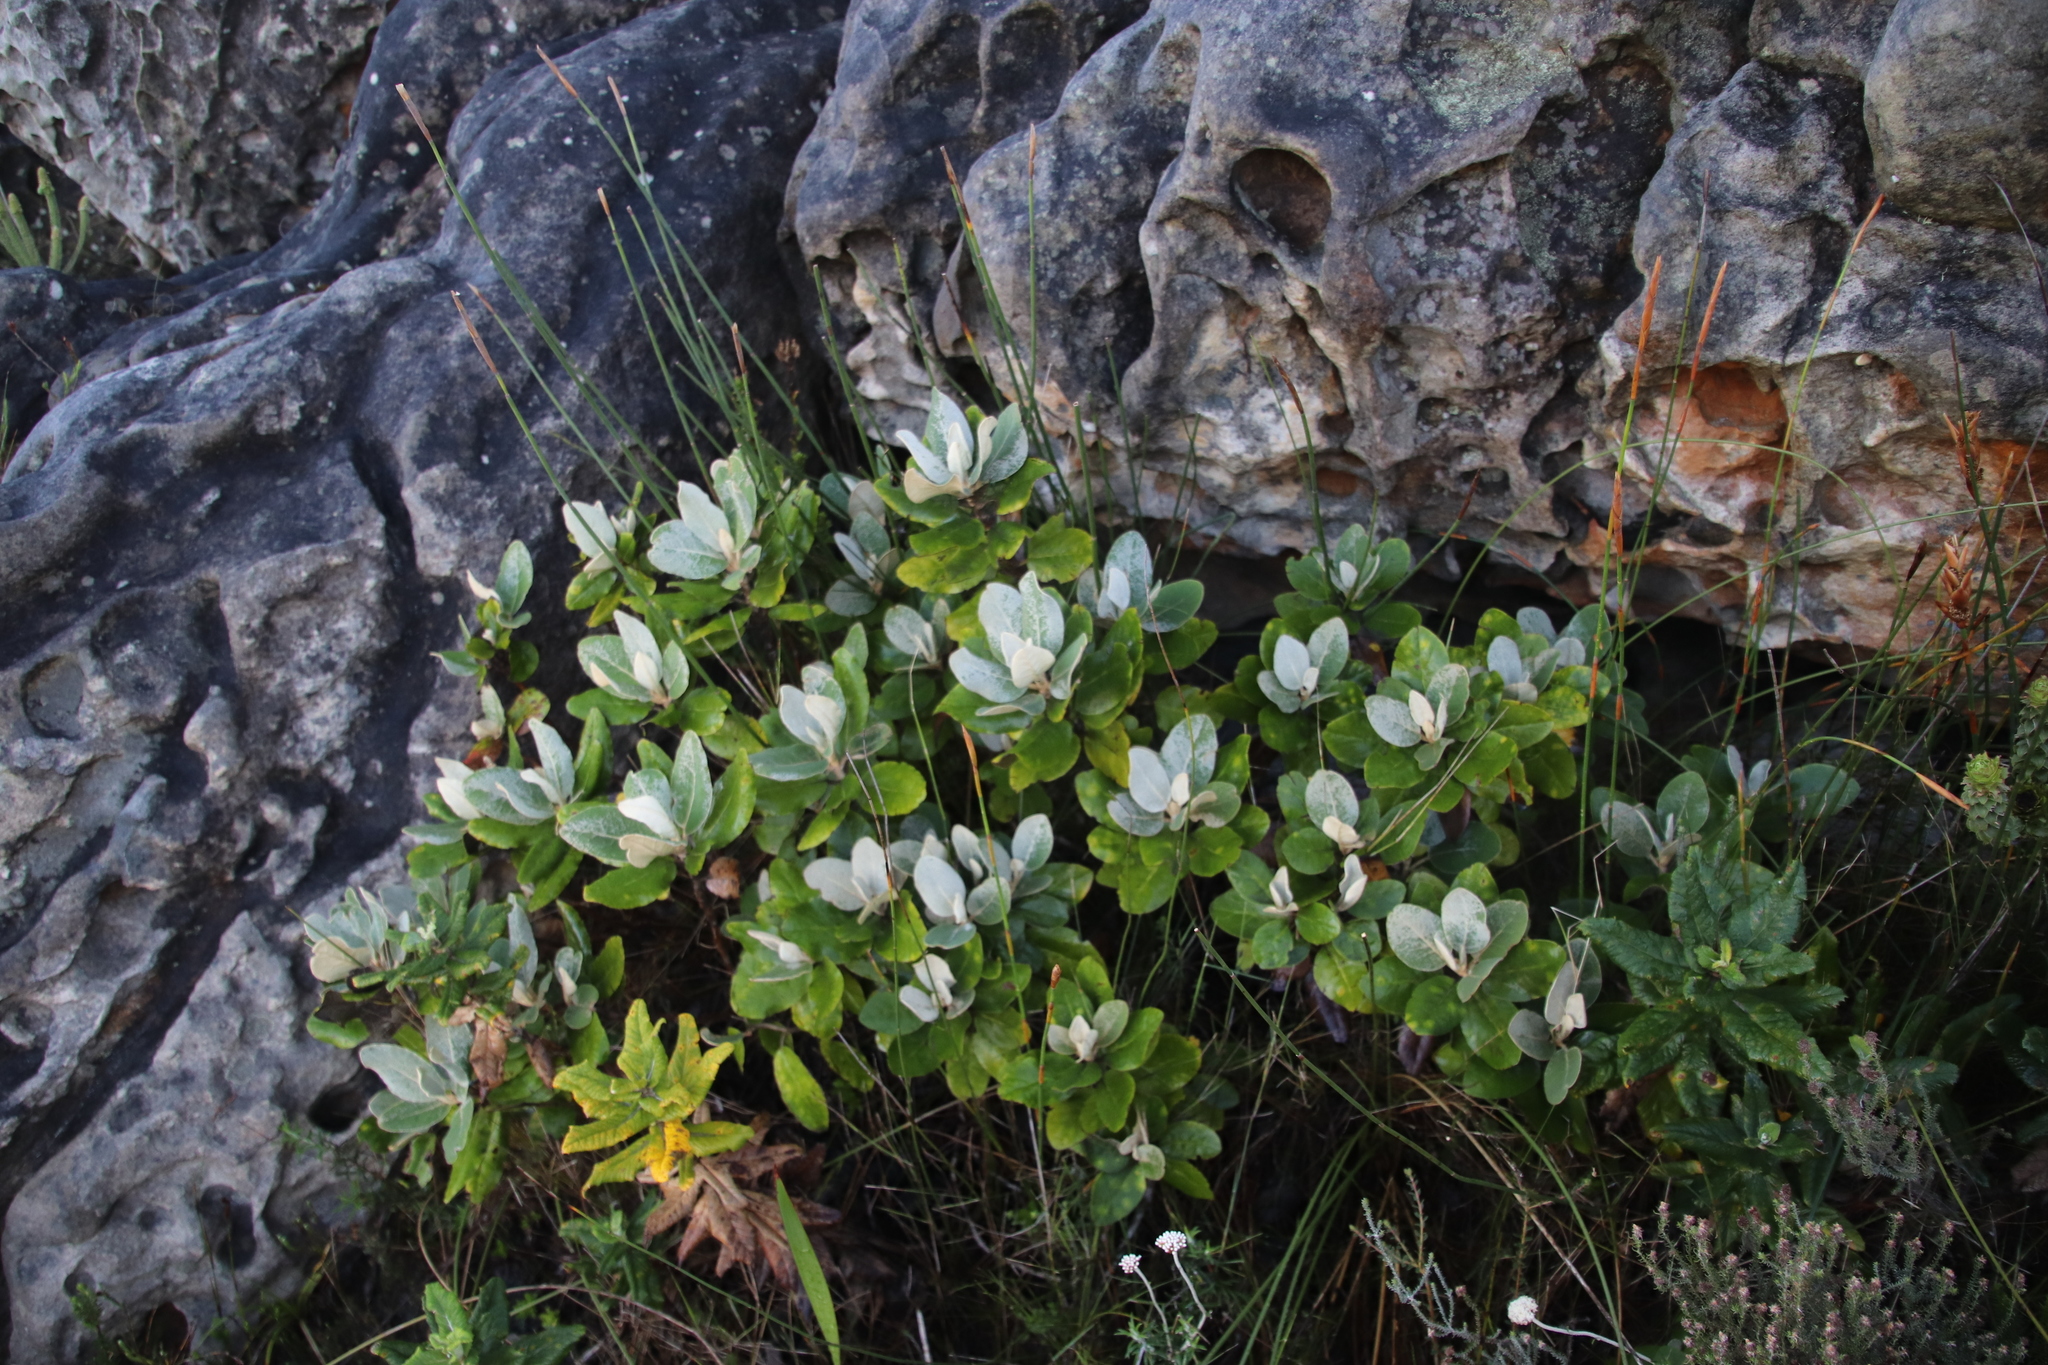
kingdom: Plantae
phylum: Tracheophyta
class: Magnoliopsida
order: Asterales
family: Asteraceae
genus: Capelio
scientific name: Capelio tabularis
